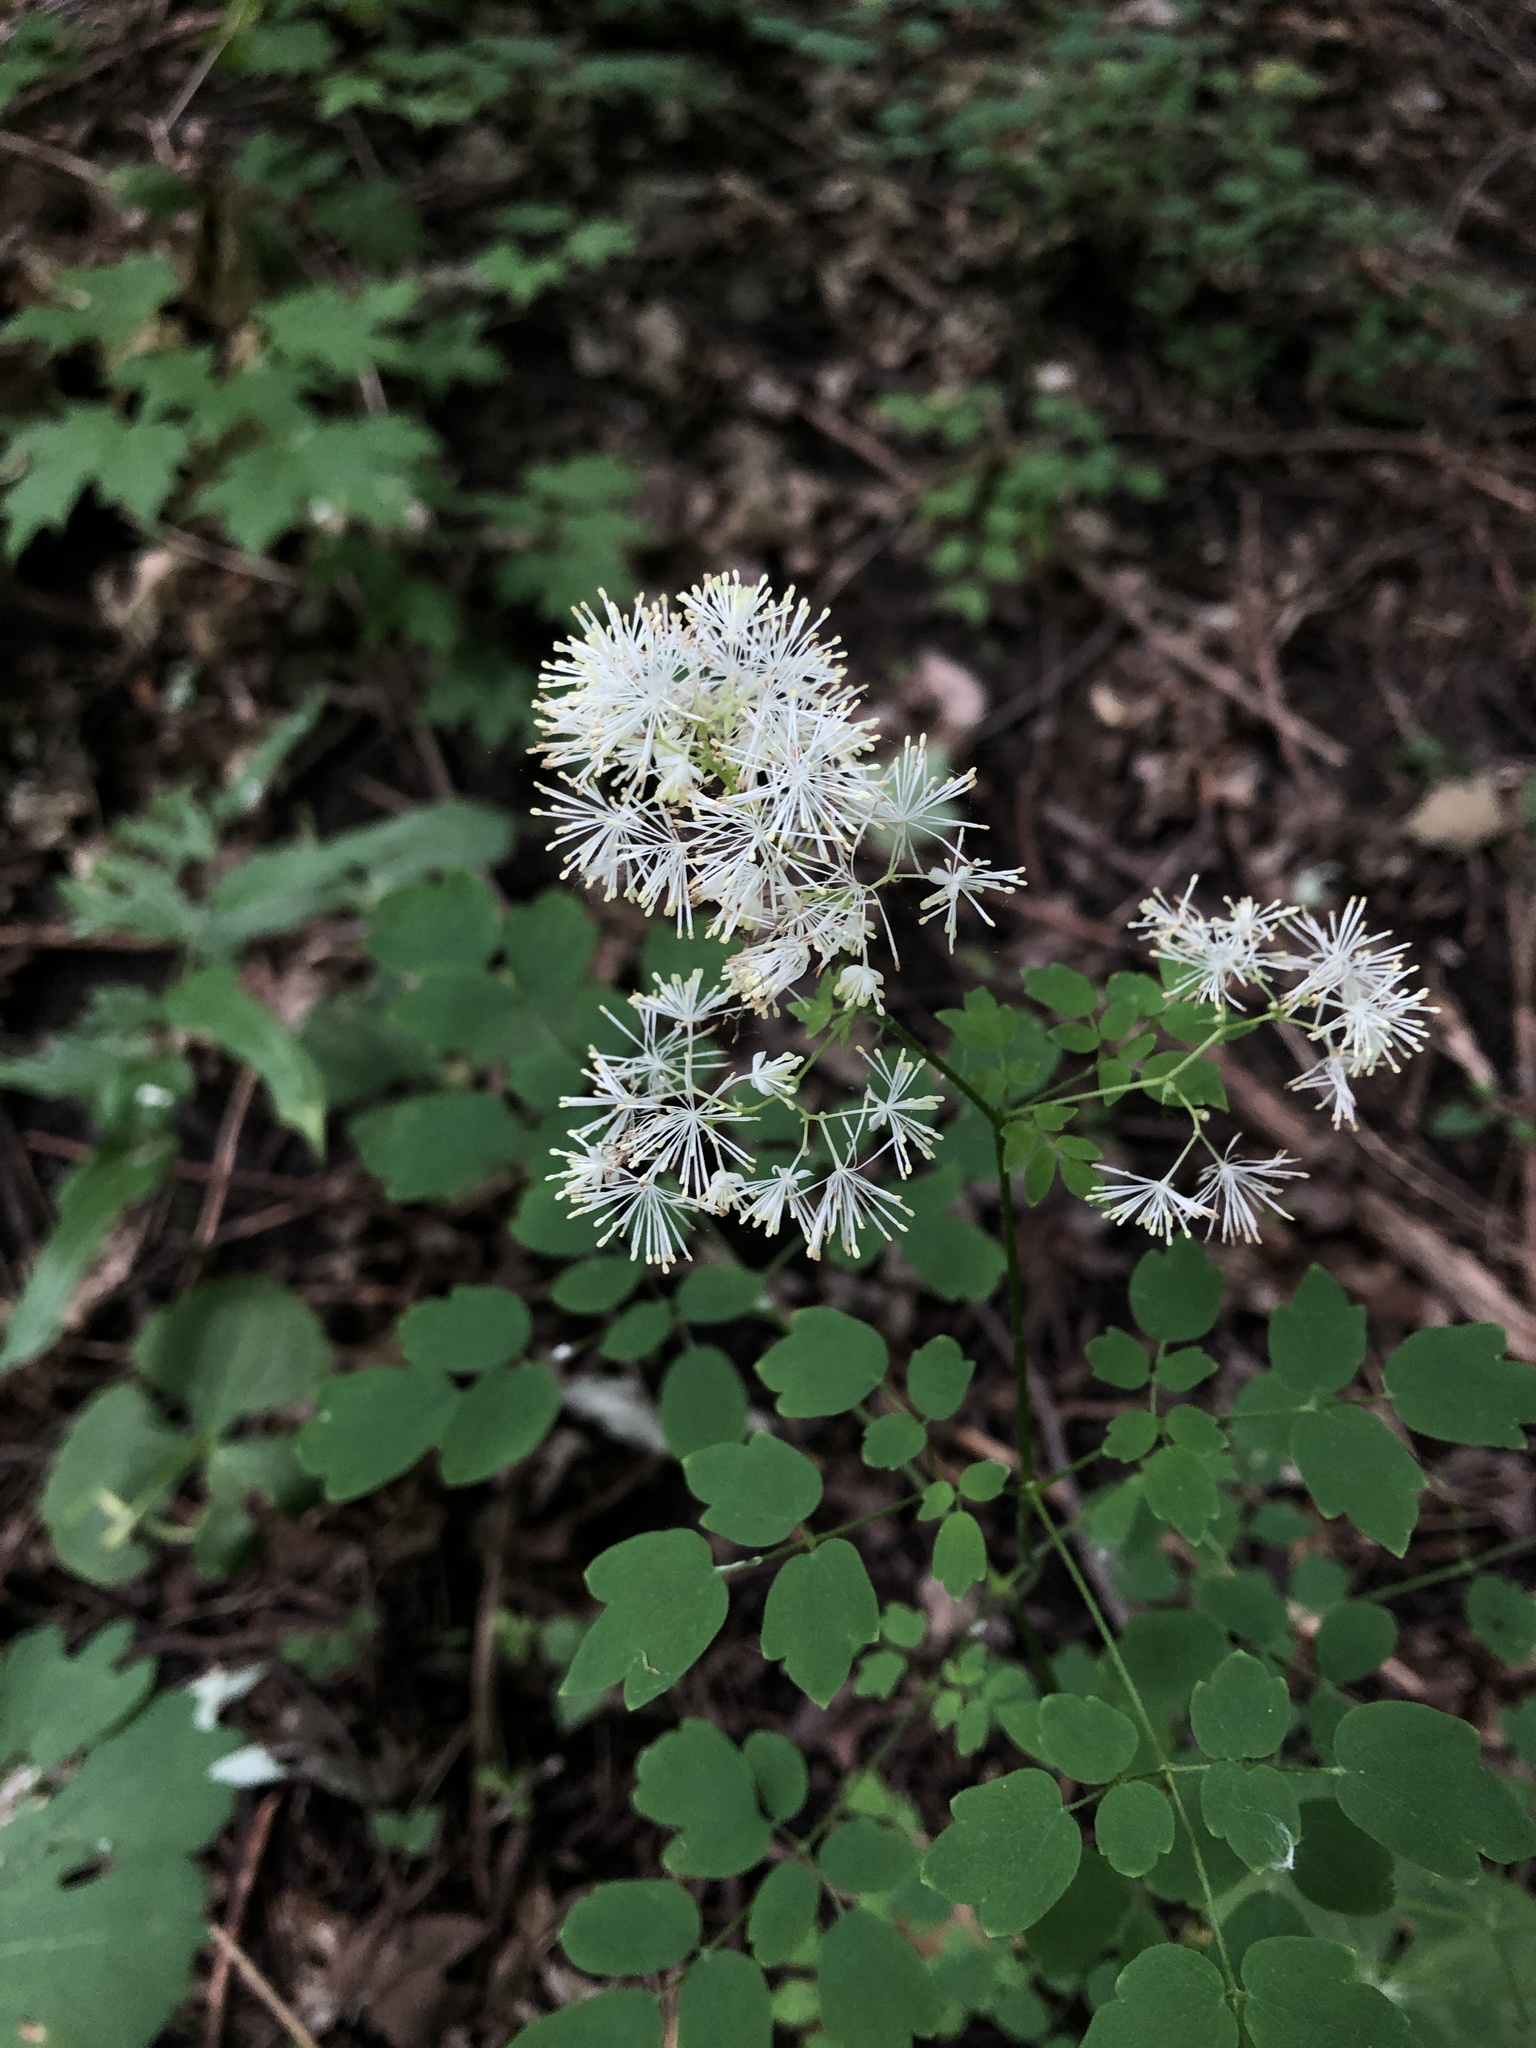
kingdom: Plantae
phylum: Tracheophyta
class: Magnoliopsida
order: Ranunculales
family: Ranunculaceae
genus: Thalictrum
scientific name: Thalictrum pubescens
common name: King-of-the-meadow
